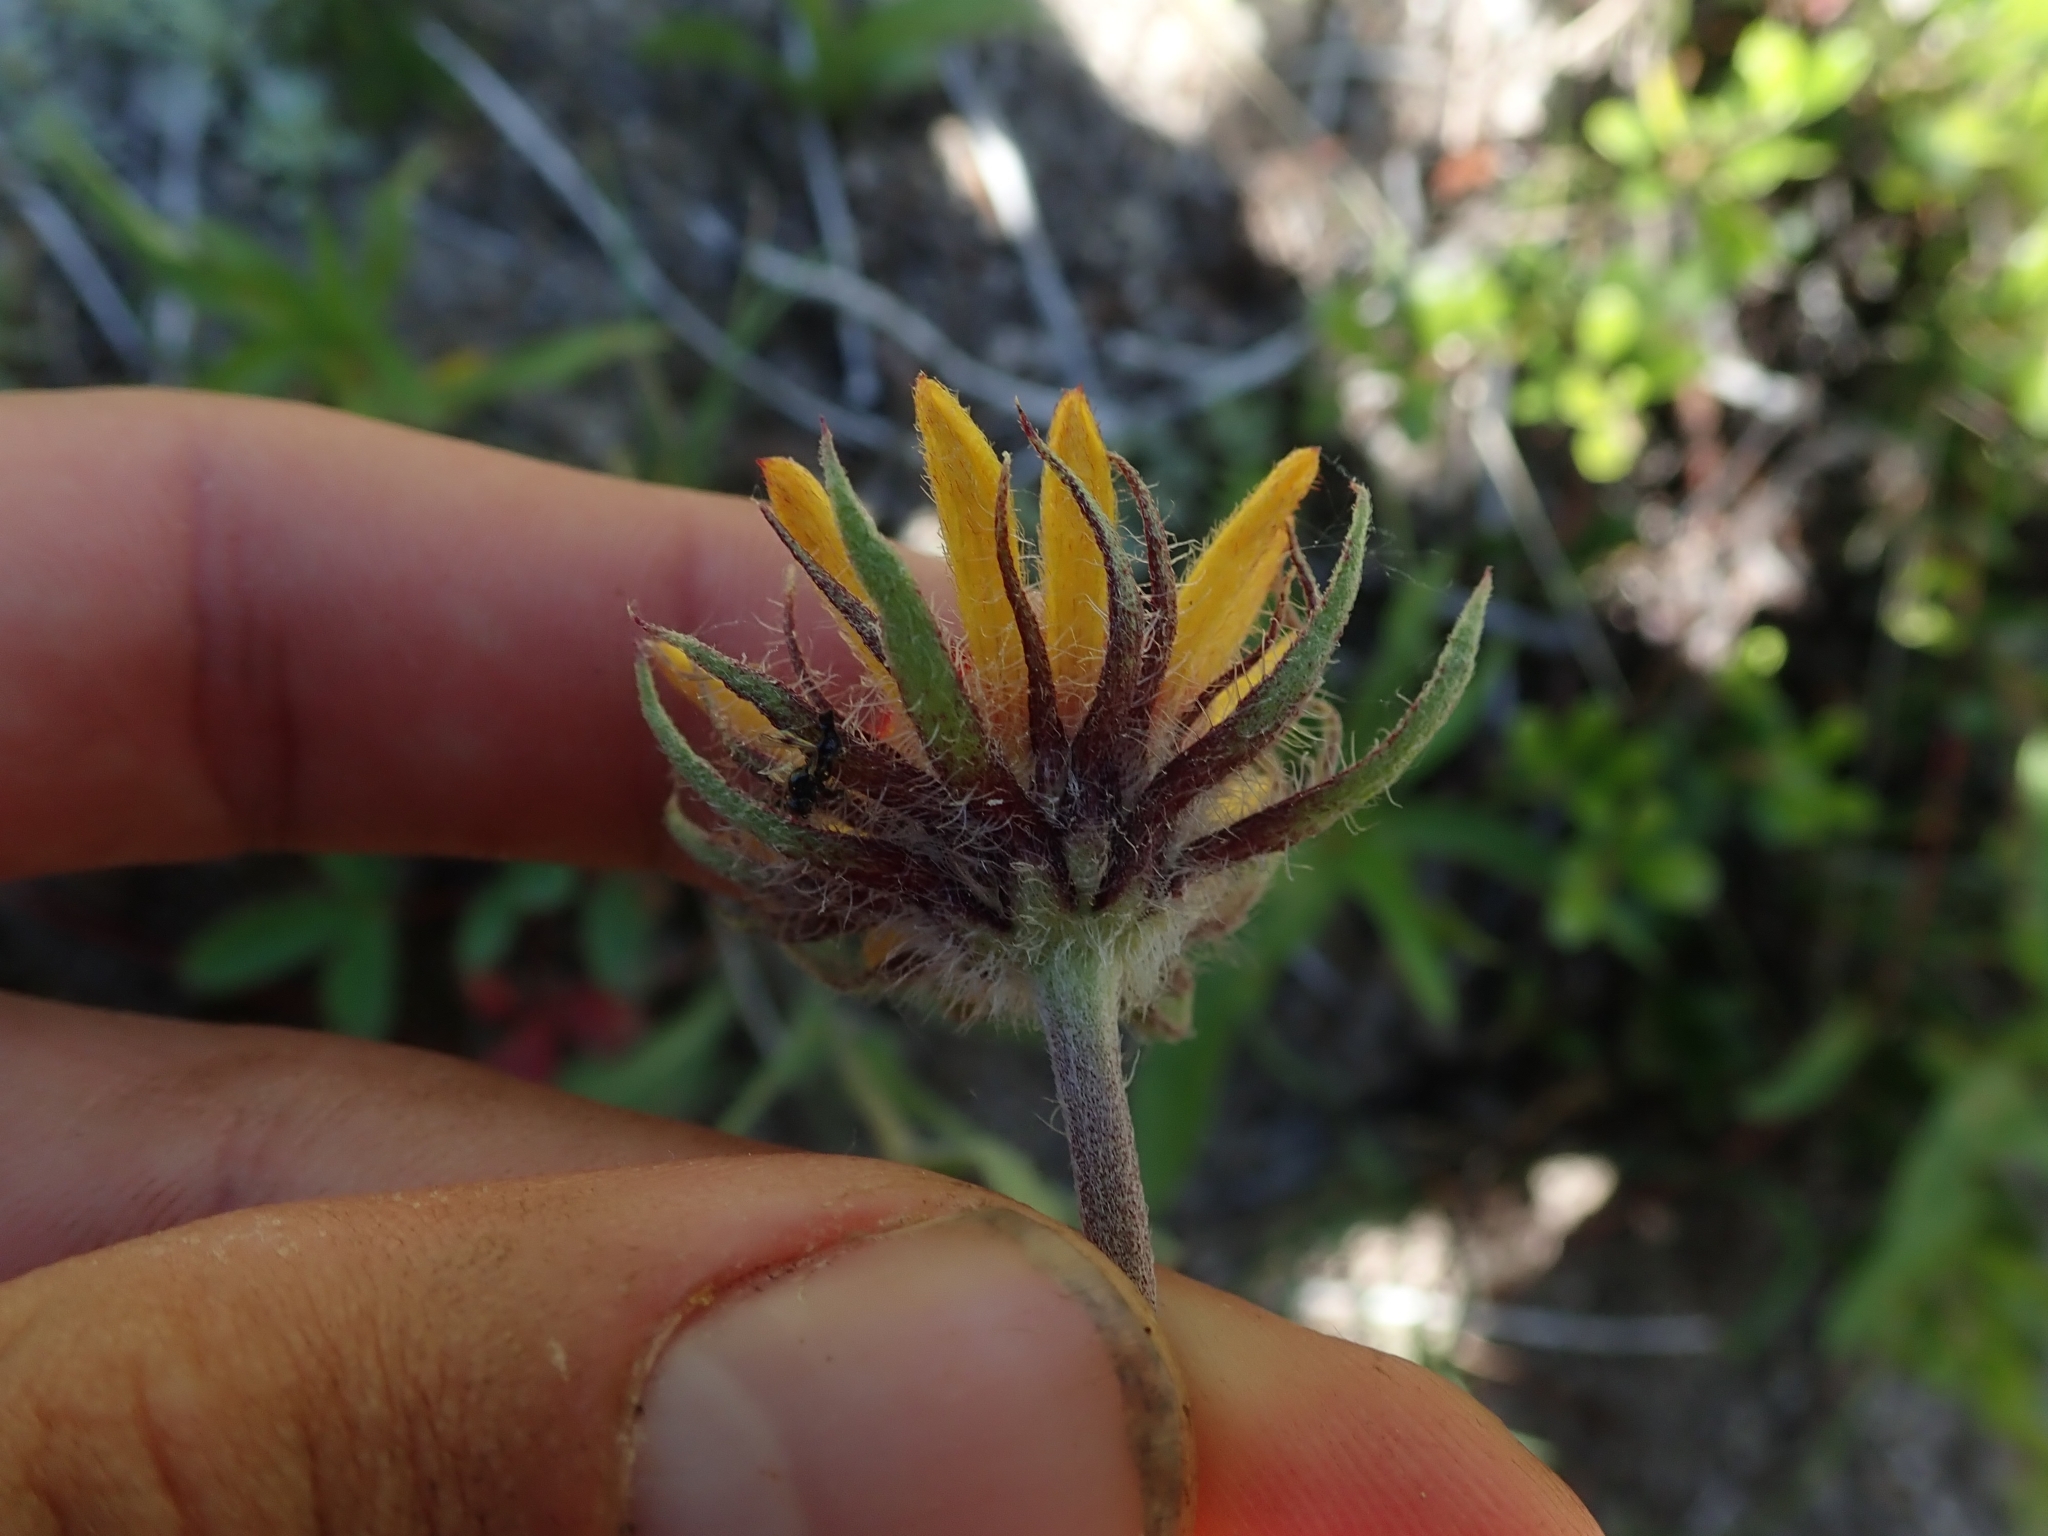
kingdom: Plantae
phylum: Tracheophyta
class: Magnoliopsida
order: Asterales
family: Asteraceae
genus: Gaillardia
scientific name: Gaillardia aristata
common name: Blanket-flower
